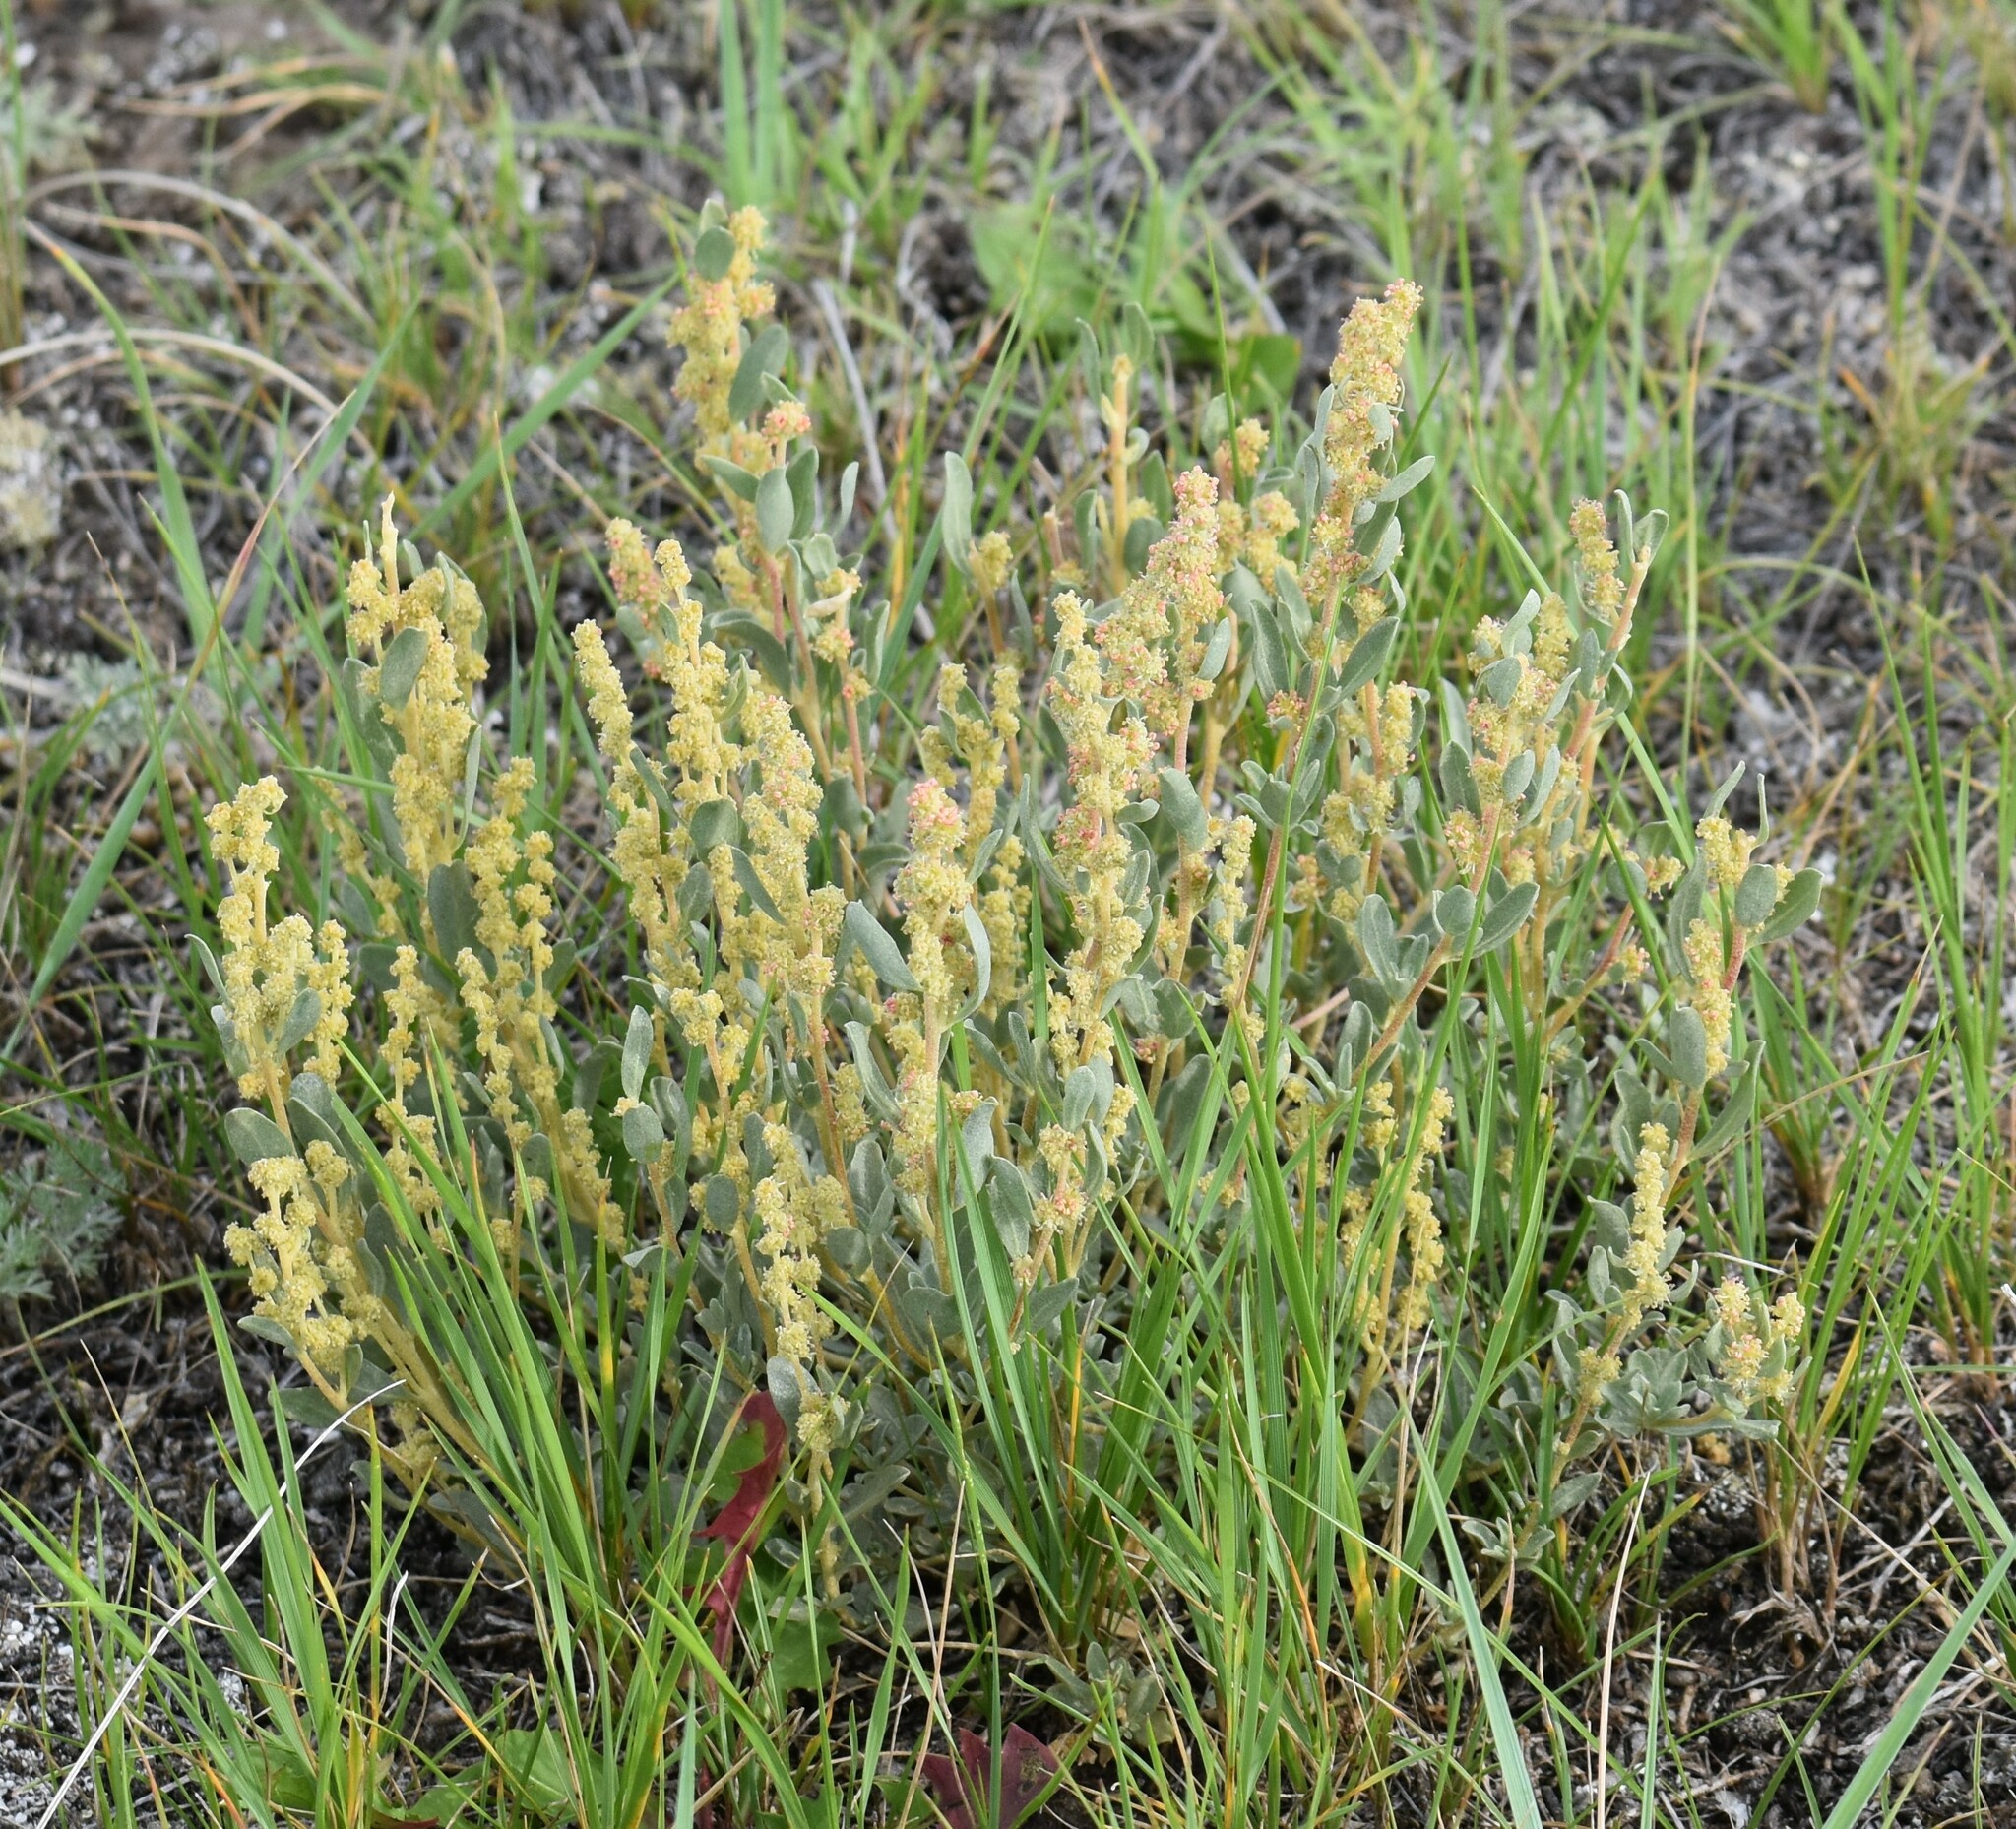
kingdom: Plantae
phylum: Tracheophyta
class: Magnoliopsida
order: Caryophyllales
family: Amaranthaceae
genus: Atriplex
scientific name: Atriplex gardneri
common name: Gardner's orache
